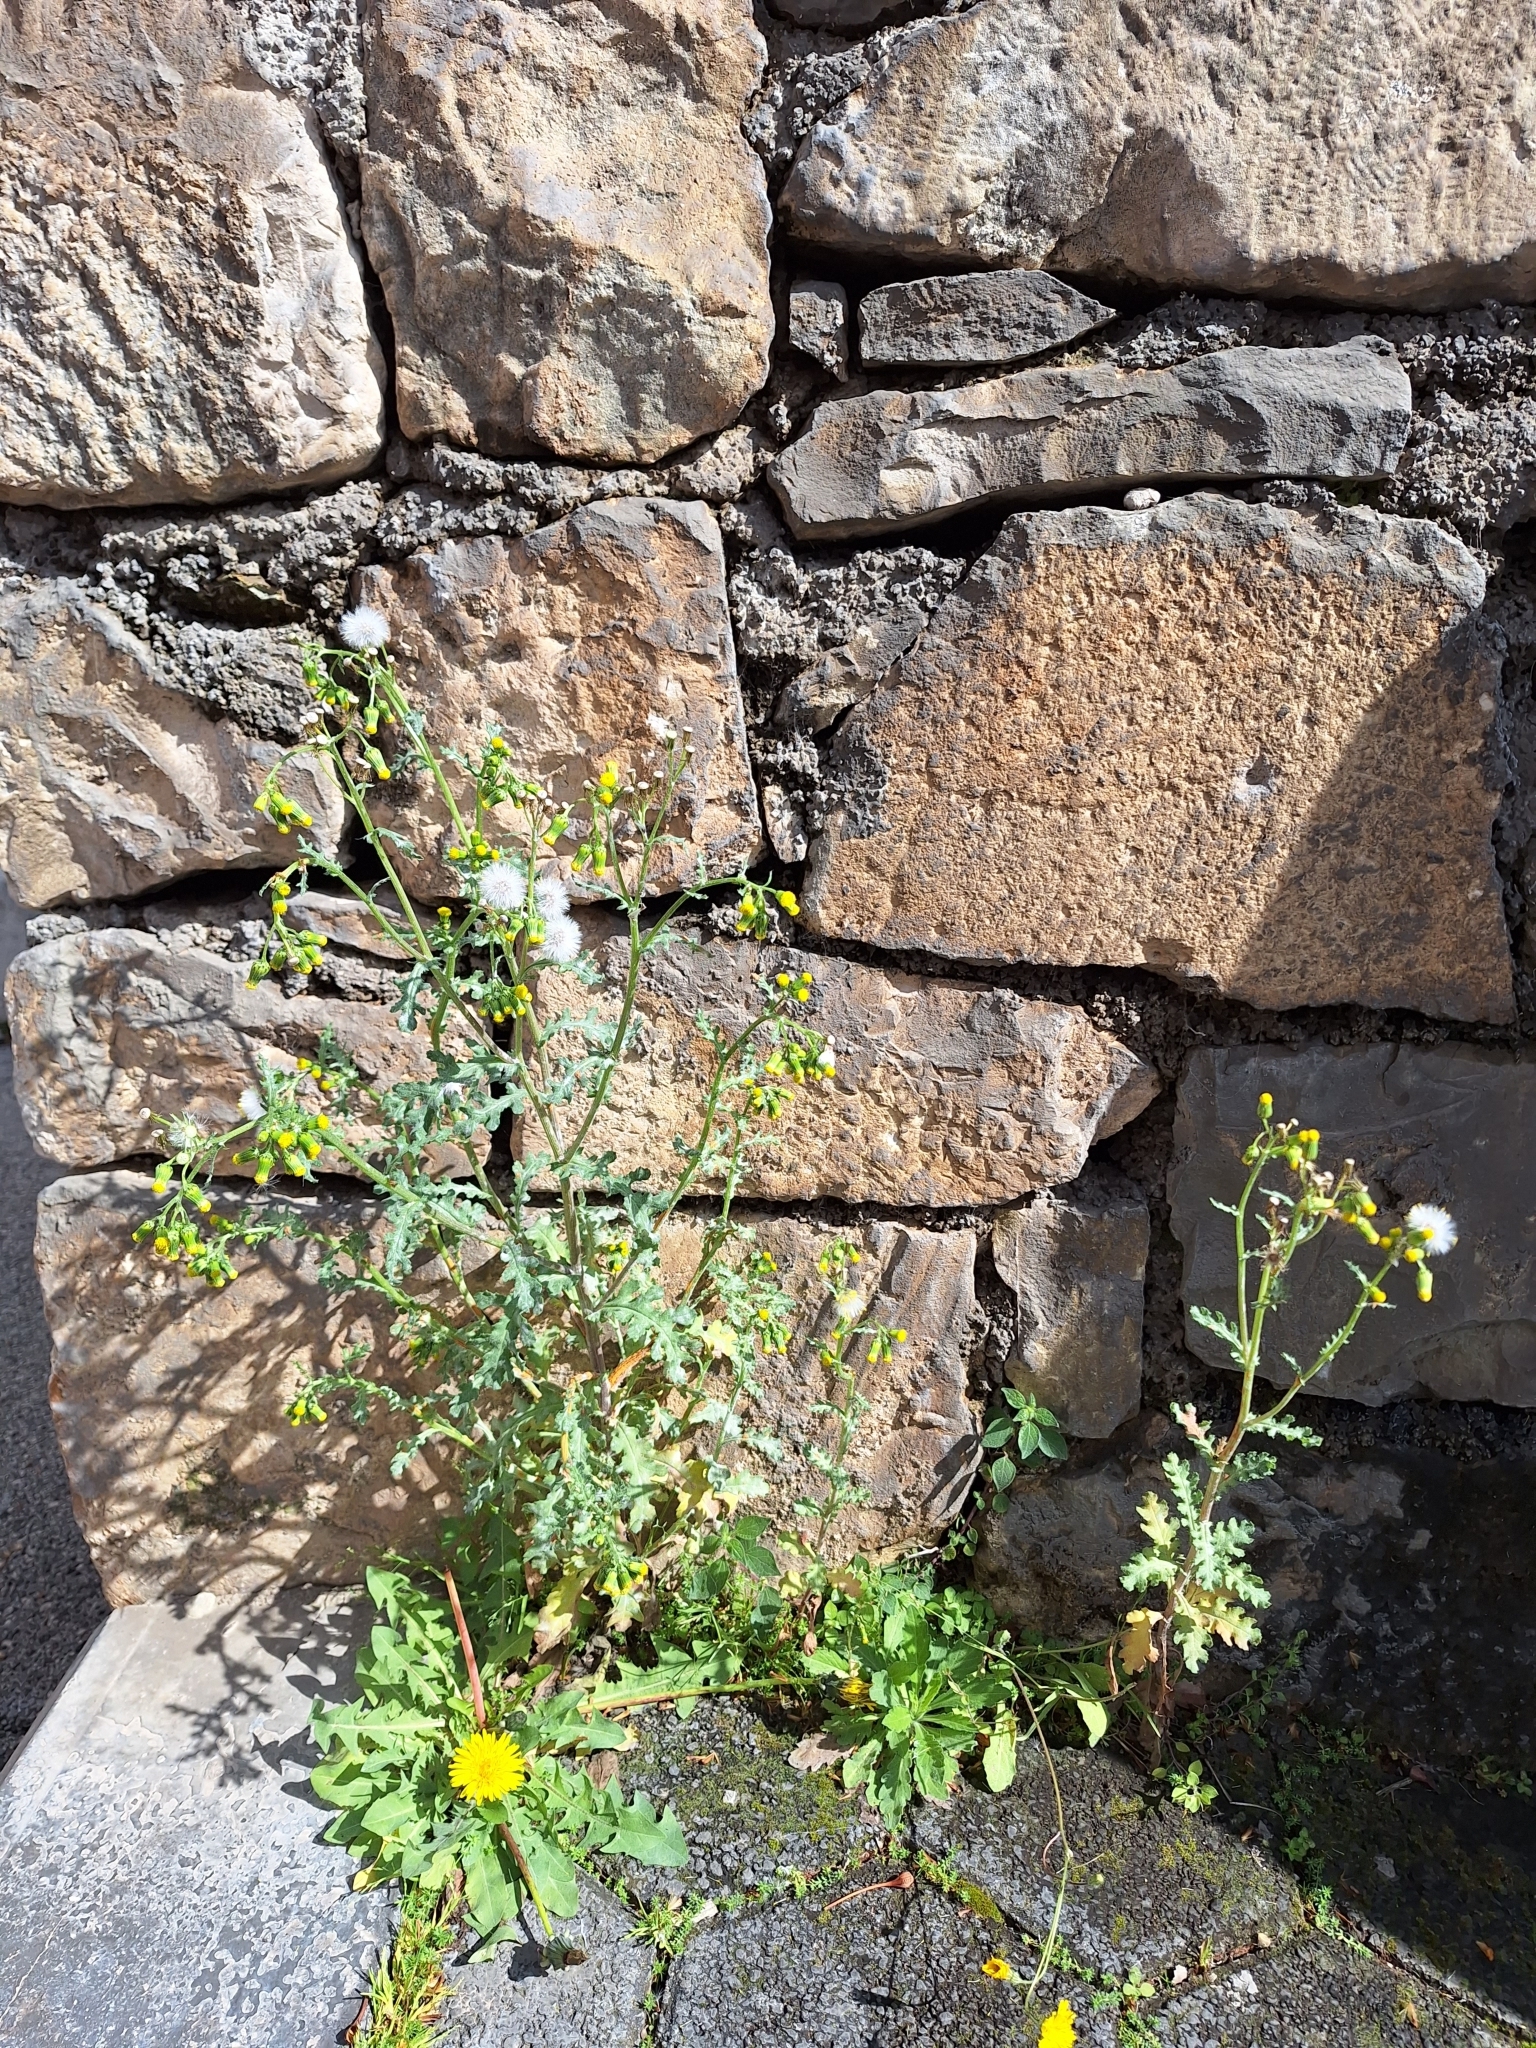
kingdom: Plantae
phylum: Tracheophyta
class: Magnoliopsida
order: Asterales
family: Asteraceae
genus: Senecio
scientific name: Senecio vulgaris
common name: Old-man-in-the-spring
